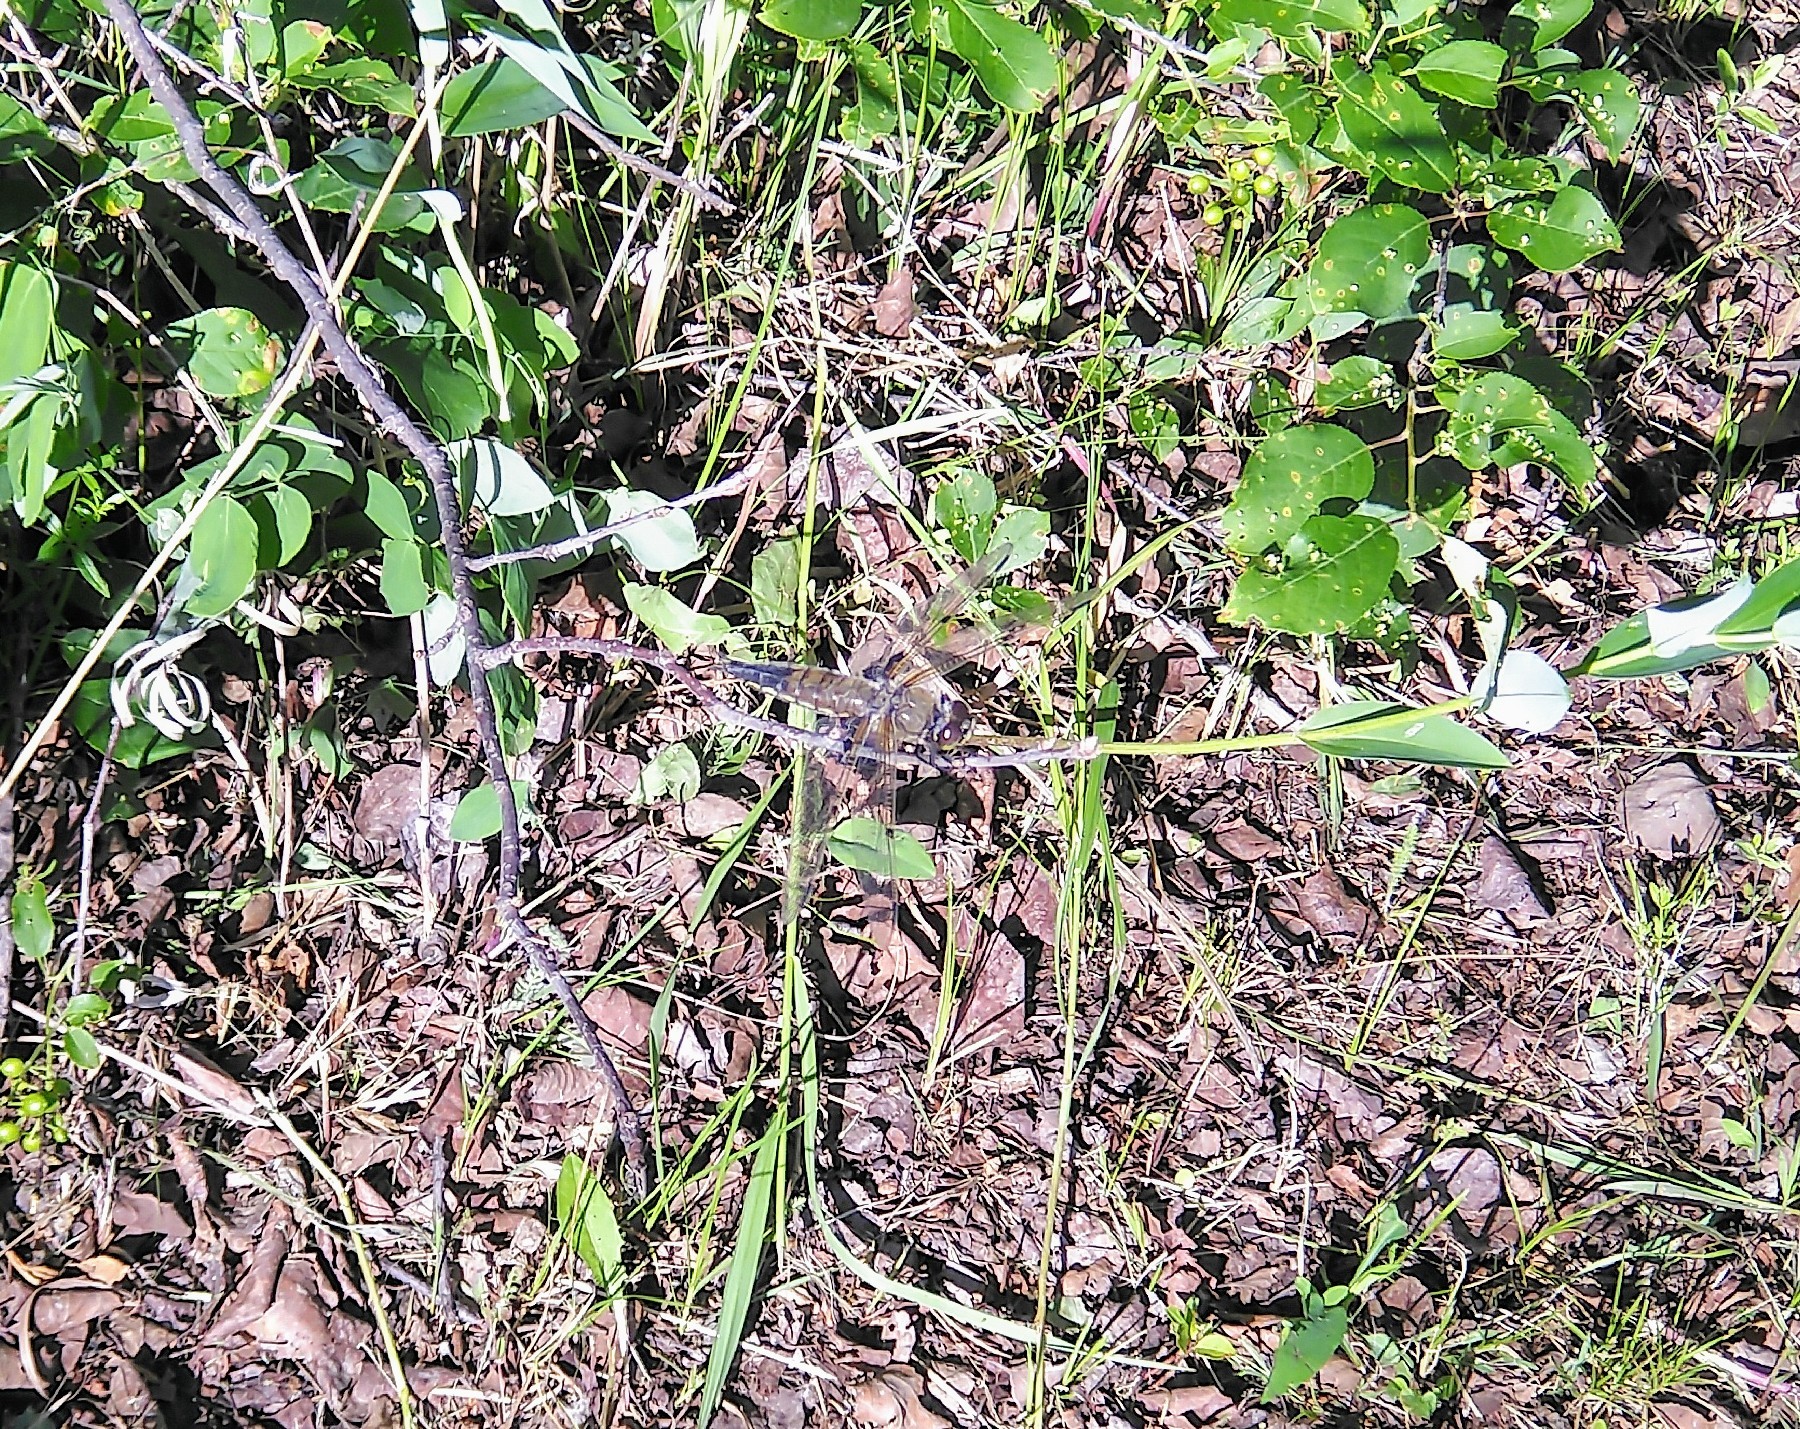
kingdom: Animalia
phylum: Arthropoda
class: Insecta
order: Odonata
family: Libellulidae
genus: Libellula
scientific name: Libellula quadrimaculata
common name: Four-spotted chaser
